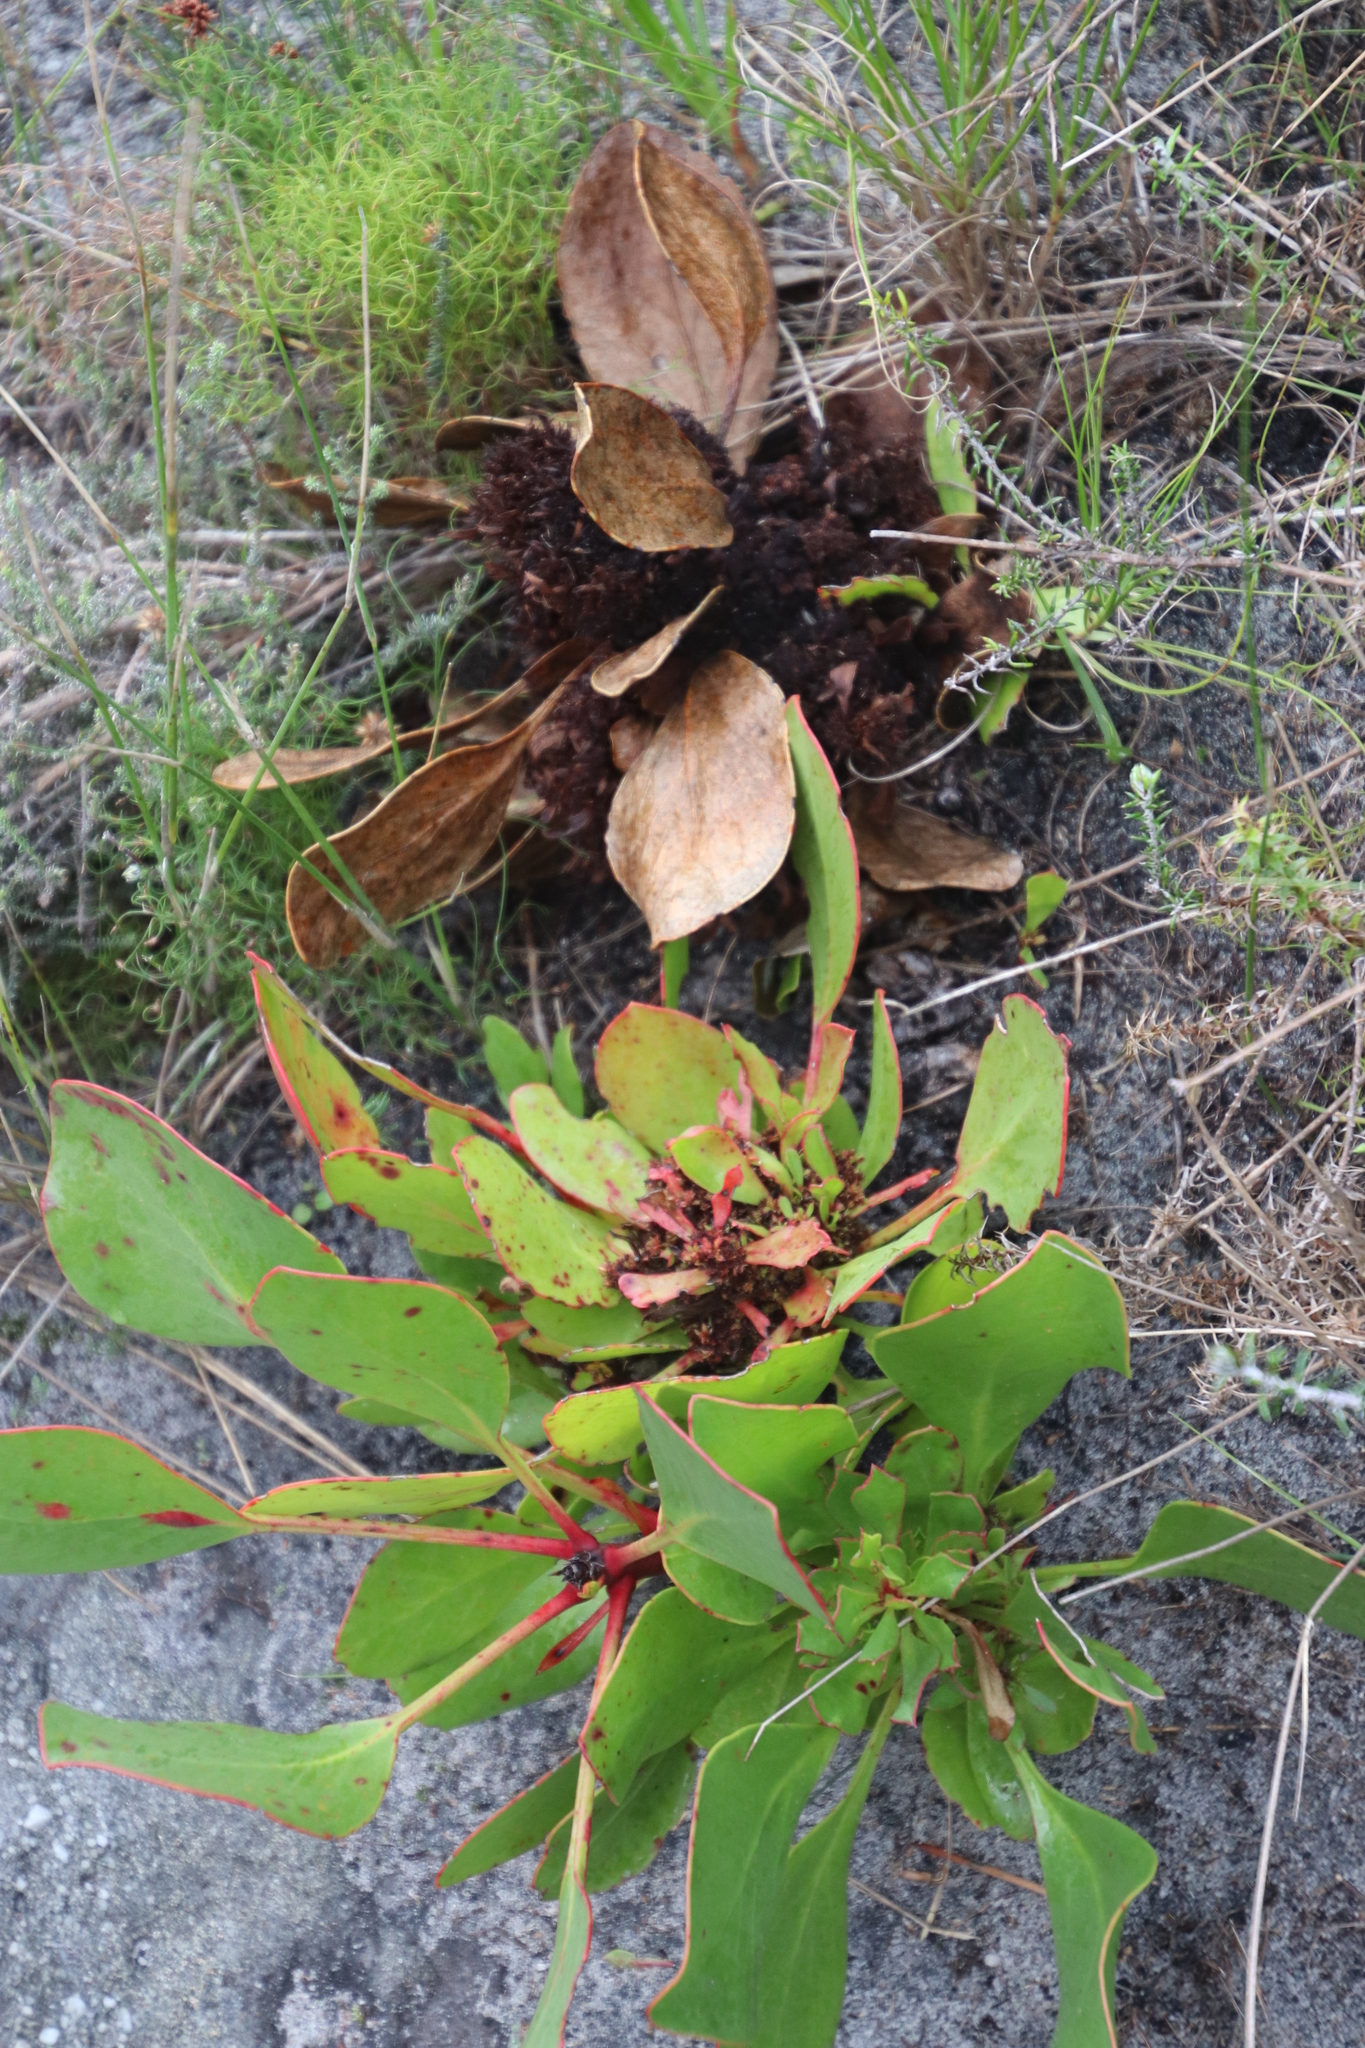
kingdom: Plantae
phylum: Tracheophyta
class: Magnoliopsida
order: Proteales
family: Proteaceae
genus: Protea
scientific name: Protea cynaroides
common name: King protea
